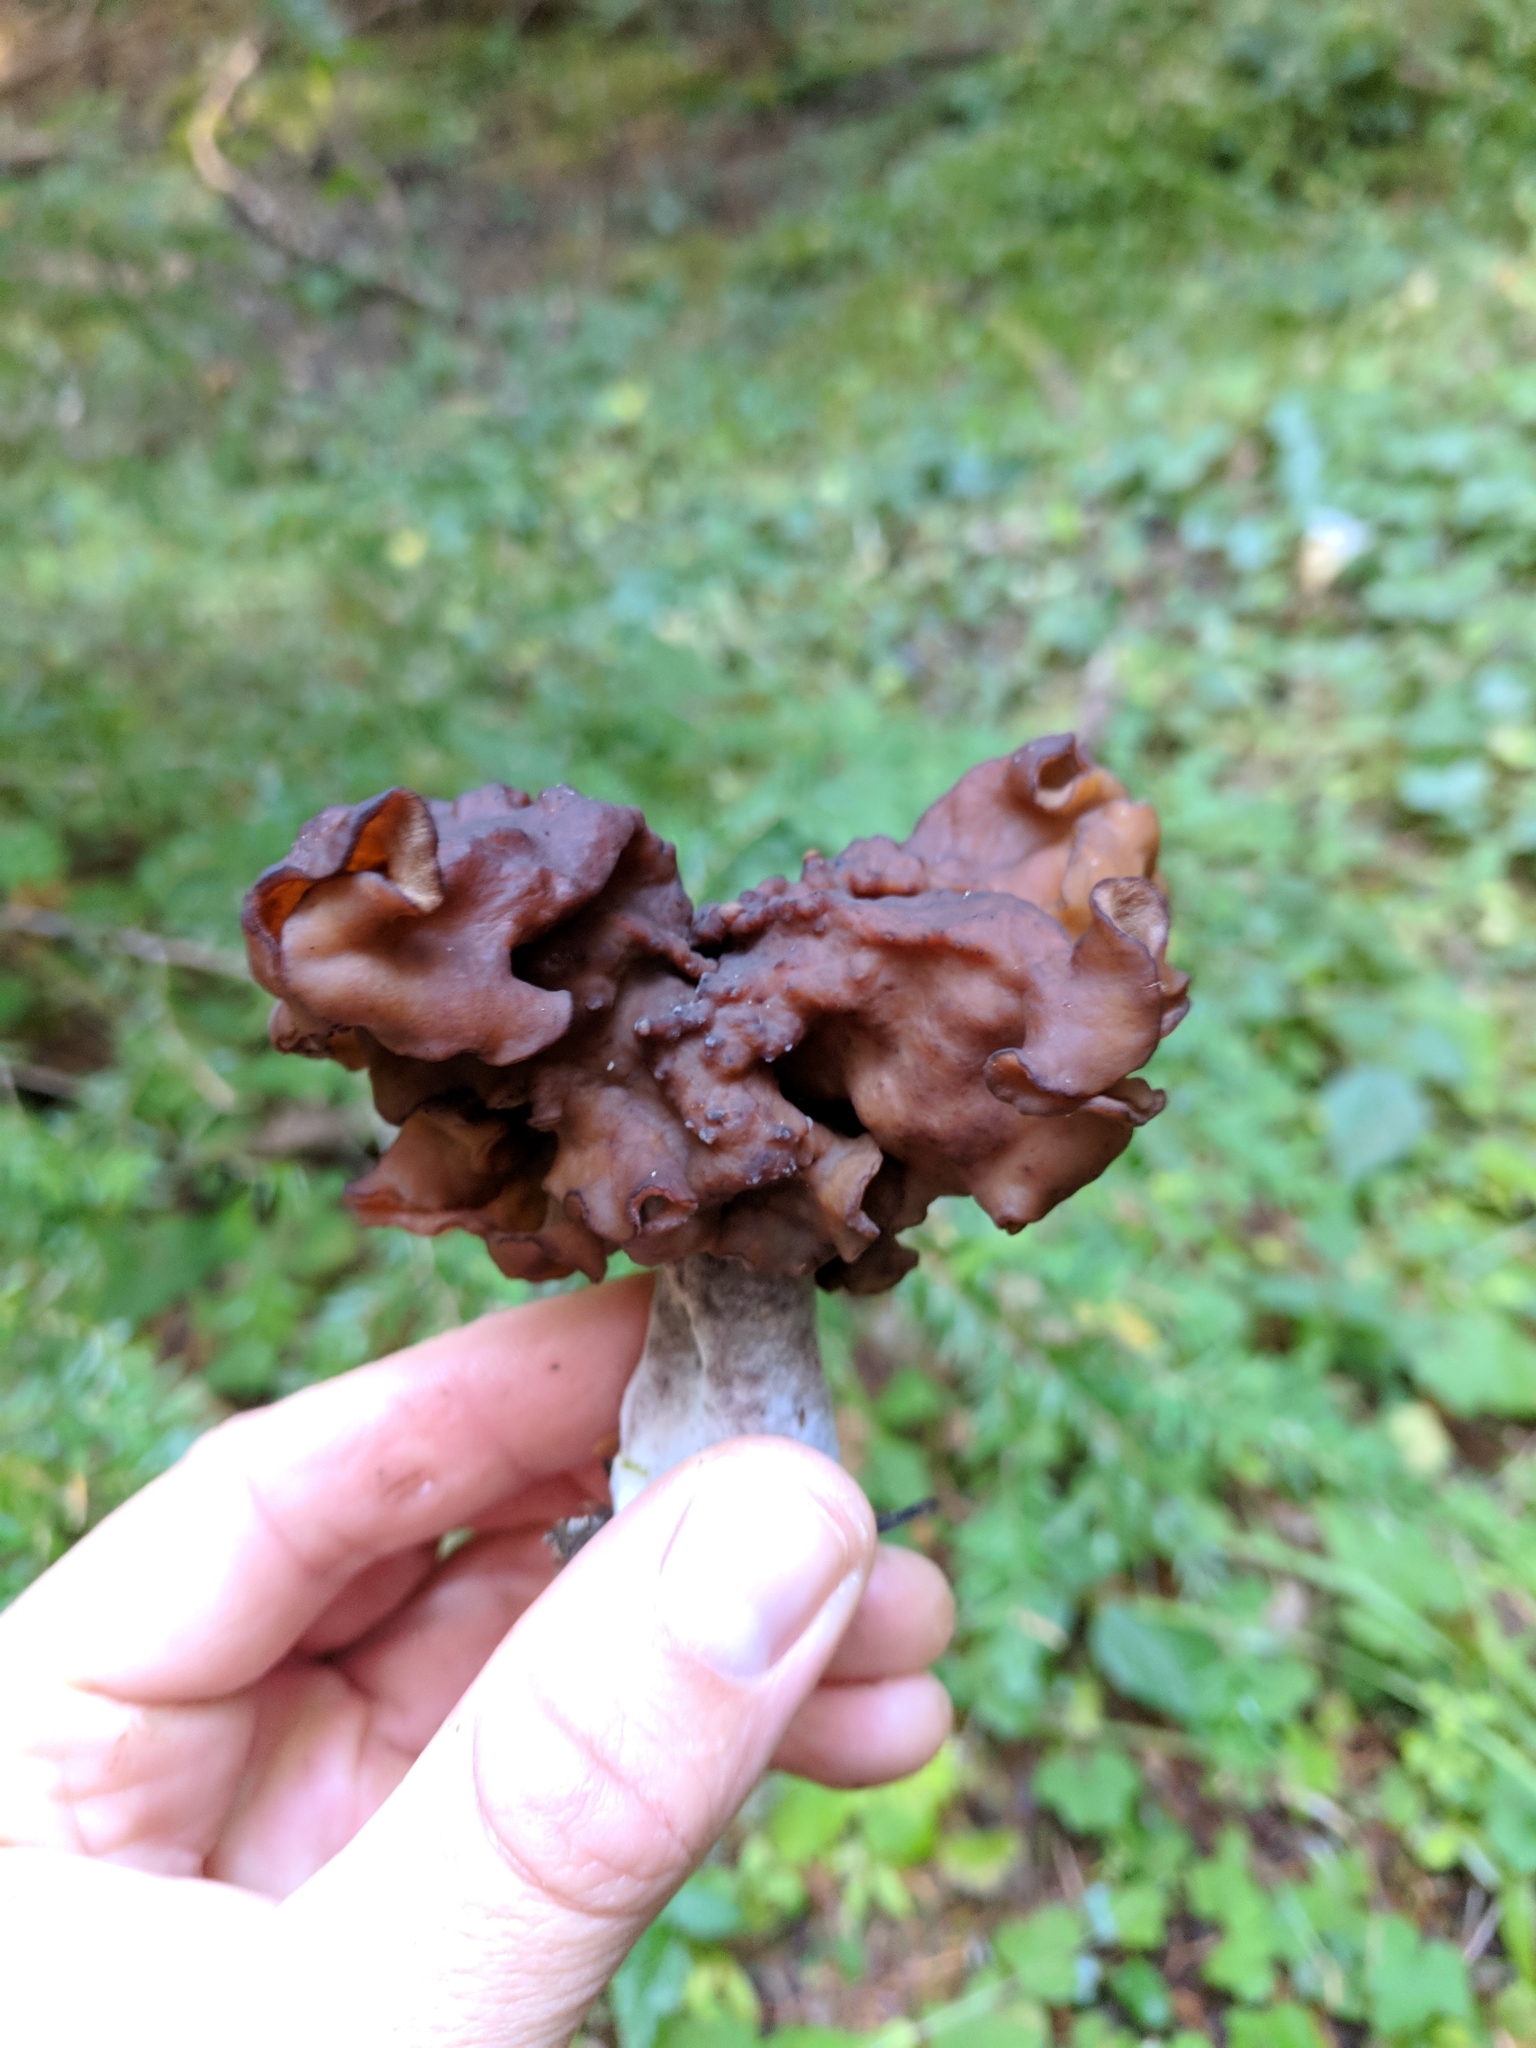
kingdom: Fungi
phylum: Ascomycota
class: Pezizomycetes
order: Pezizales
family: Discinaceae
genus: Gyromitra
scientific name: Gyromitra infula
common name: Pouched false morel
